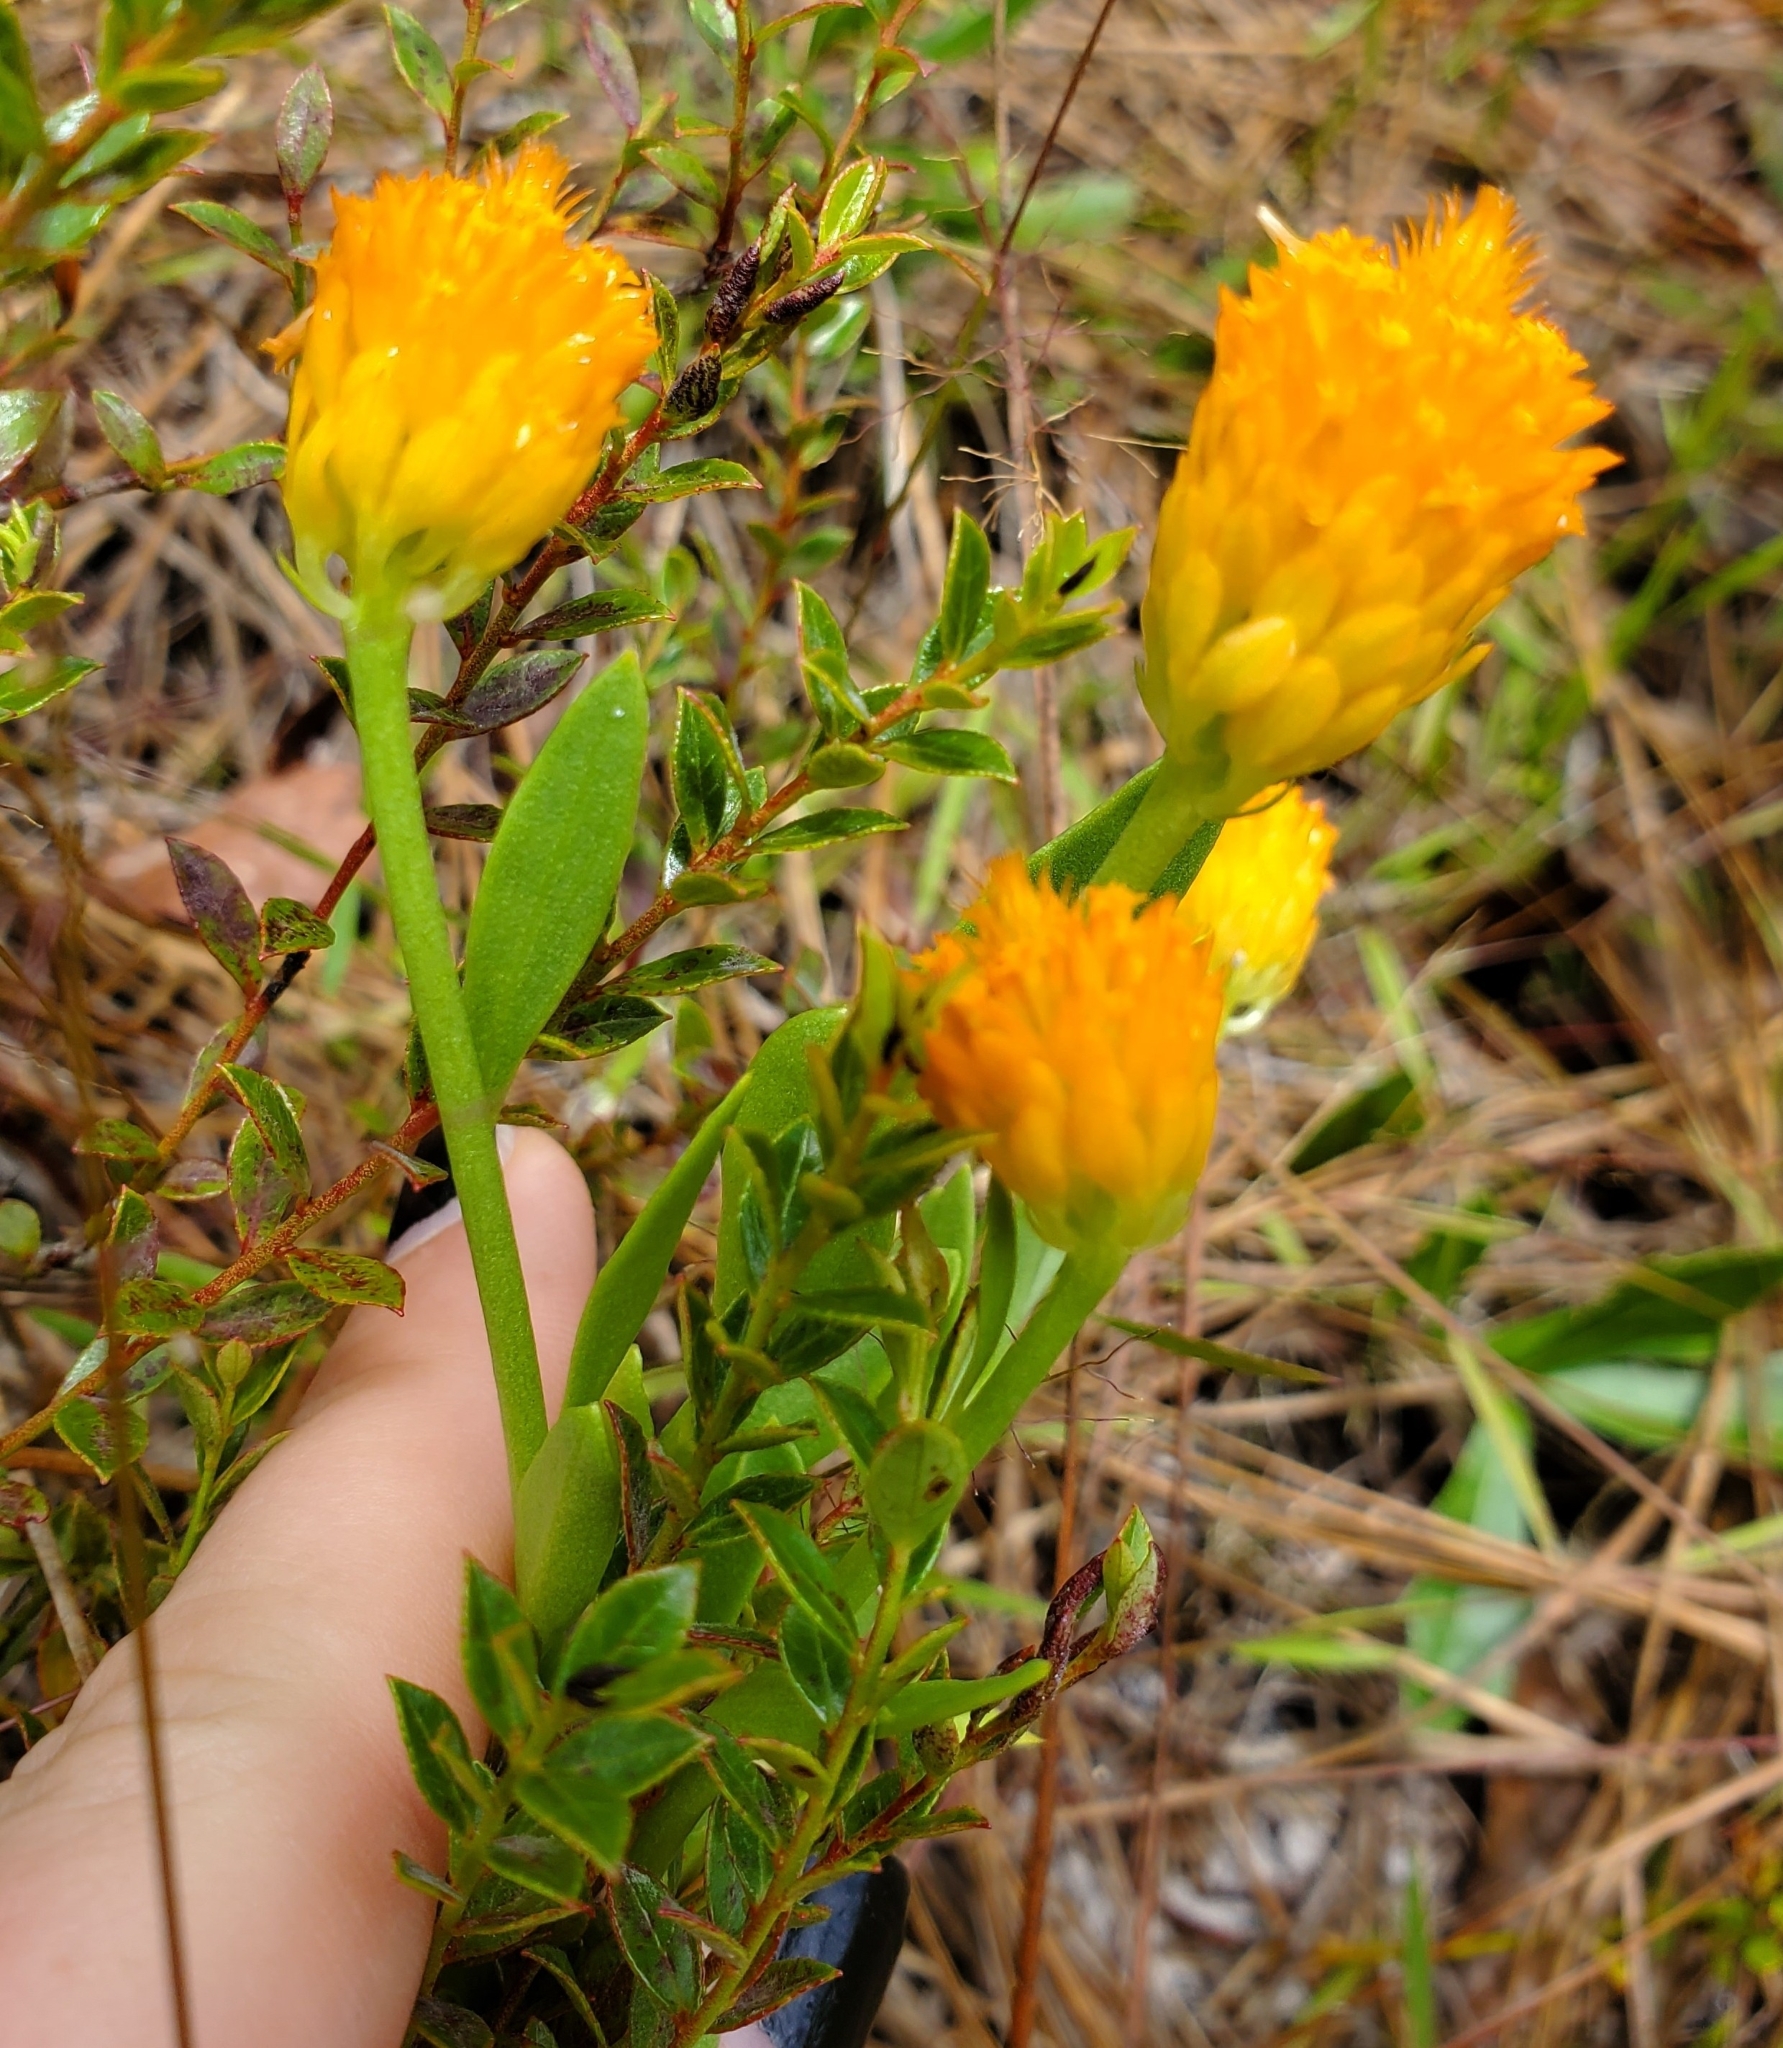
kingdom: Plantae
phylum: Tracheophyta
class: Magnoliopsida
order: Fabales
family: Polygalaceae
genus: Polygala
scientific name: Polygala lutea
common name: Orange milkwort
